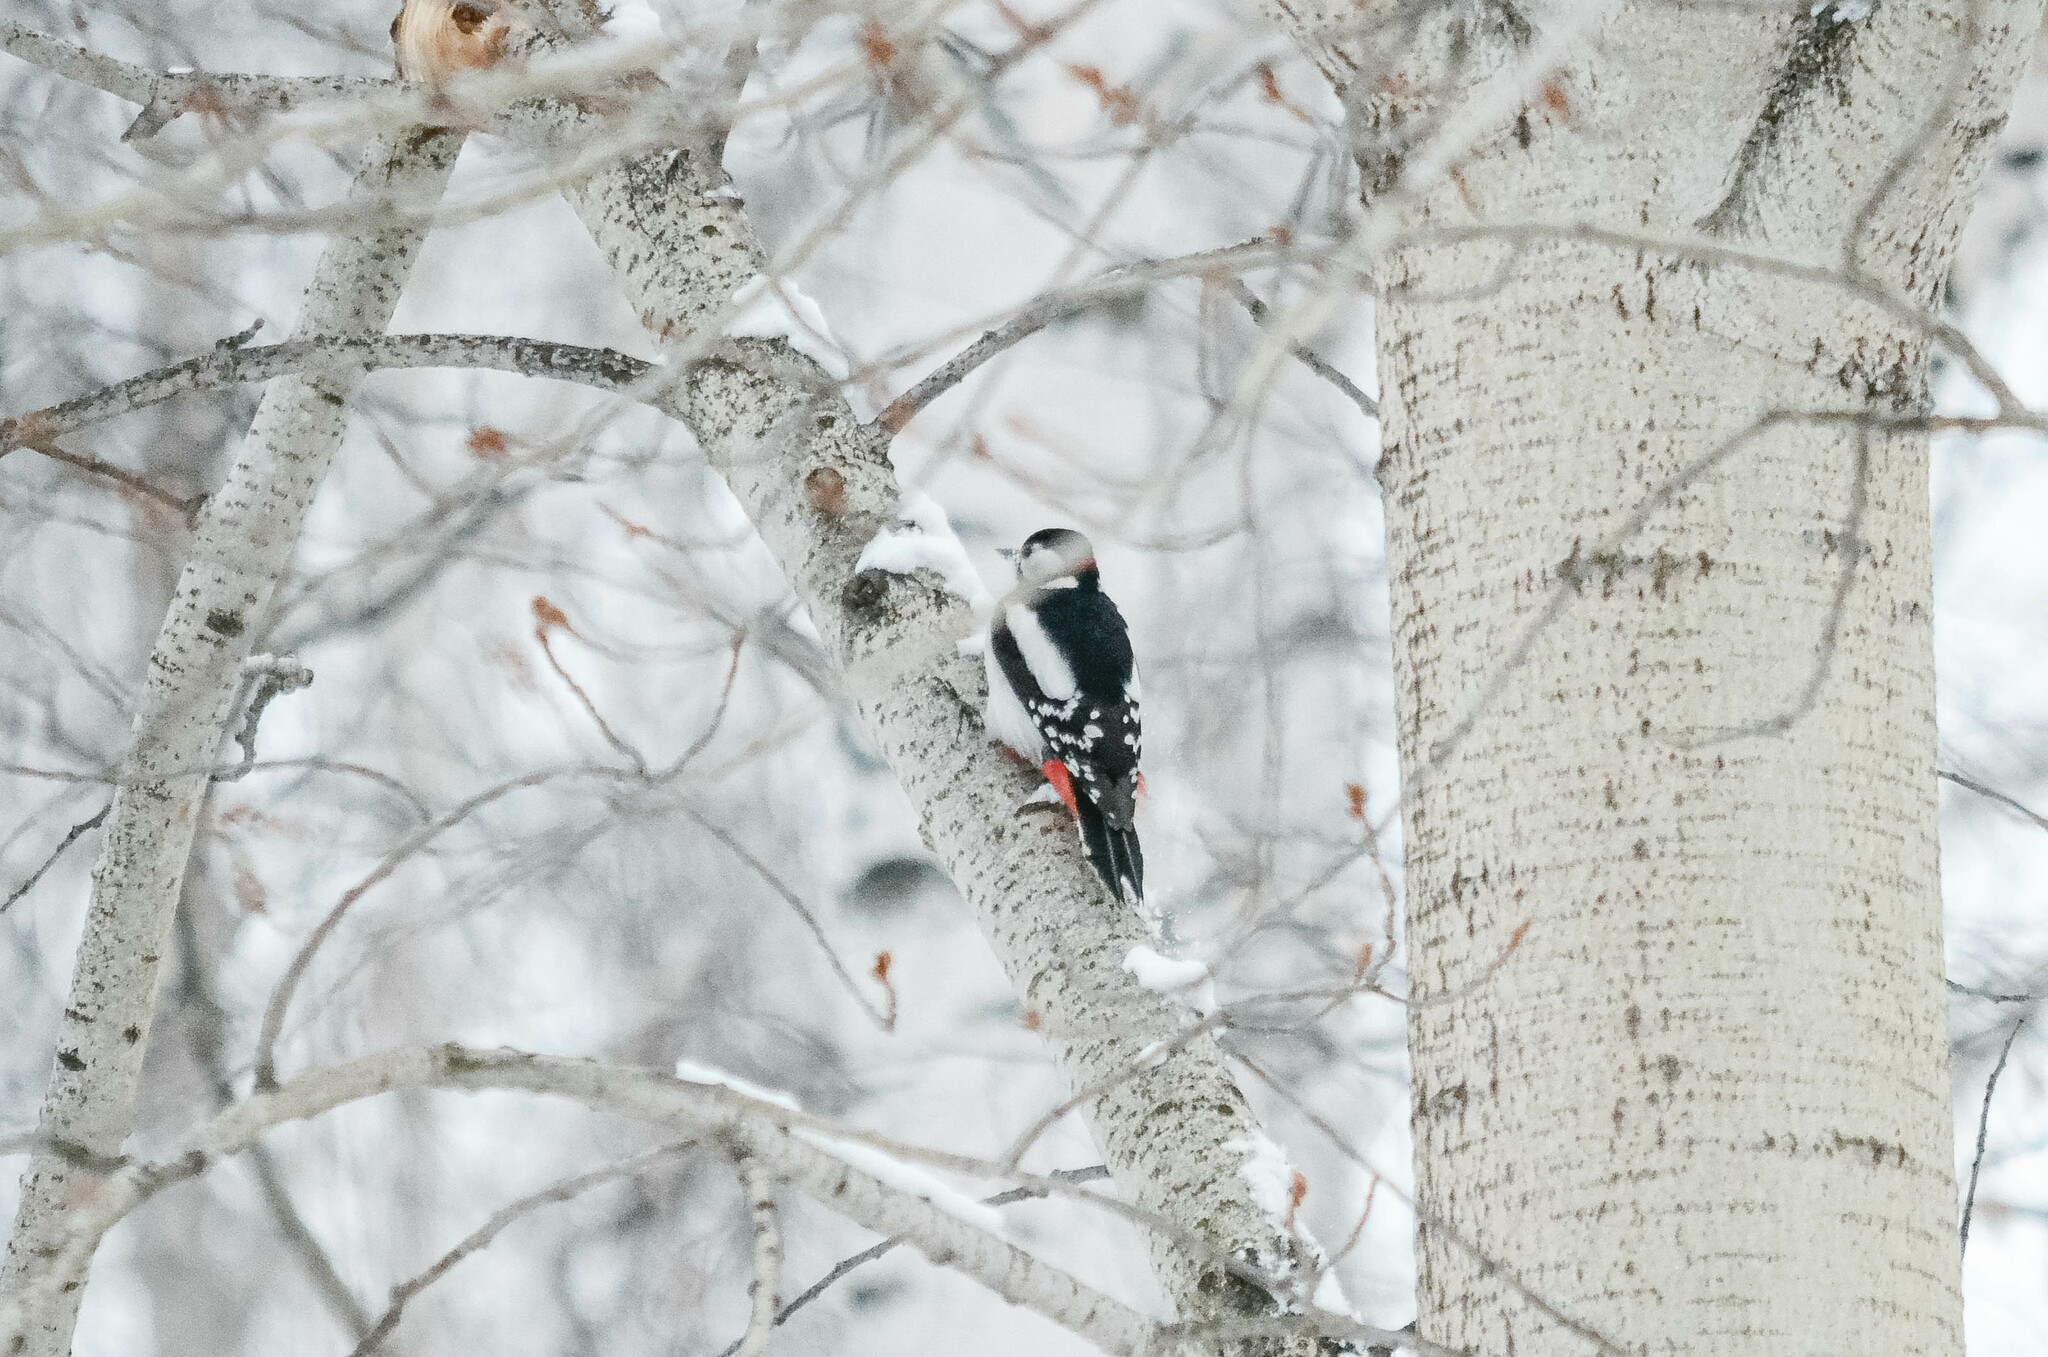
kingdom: Animalia
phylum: Chordata
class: Aves
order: Piciformes
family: Picidae
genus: Dendrocopos
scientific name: Dendrocopos major
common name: Great spotted woodpecker
